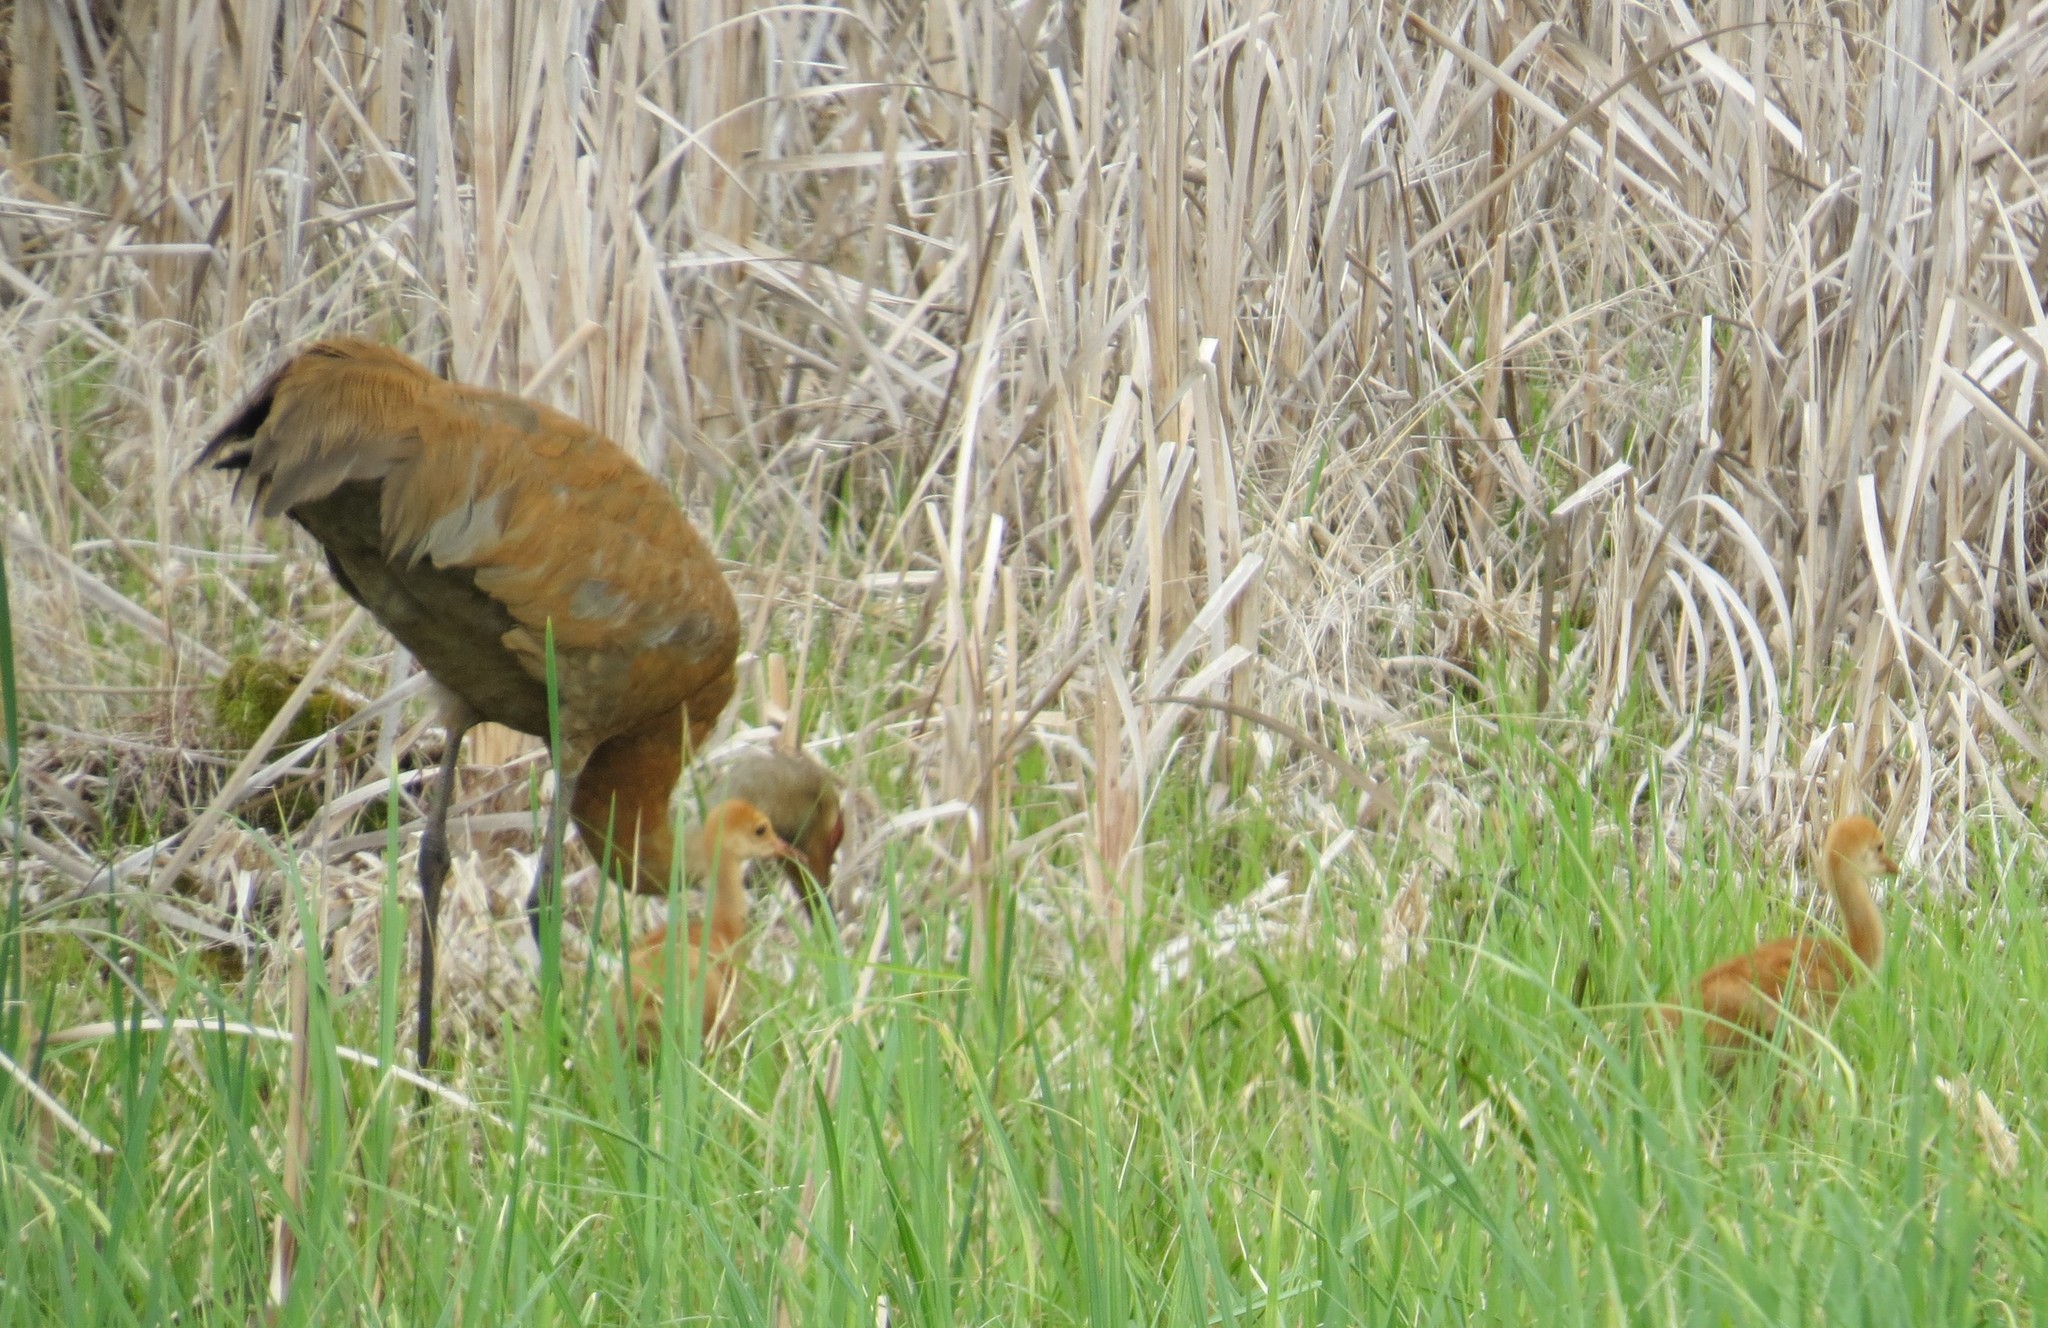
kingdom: Animalia
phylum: Chordata
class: Aves
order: Gruiformes
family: Gruidae
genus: Grus
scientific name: Grus canadensis
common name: Sandhill crane
